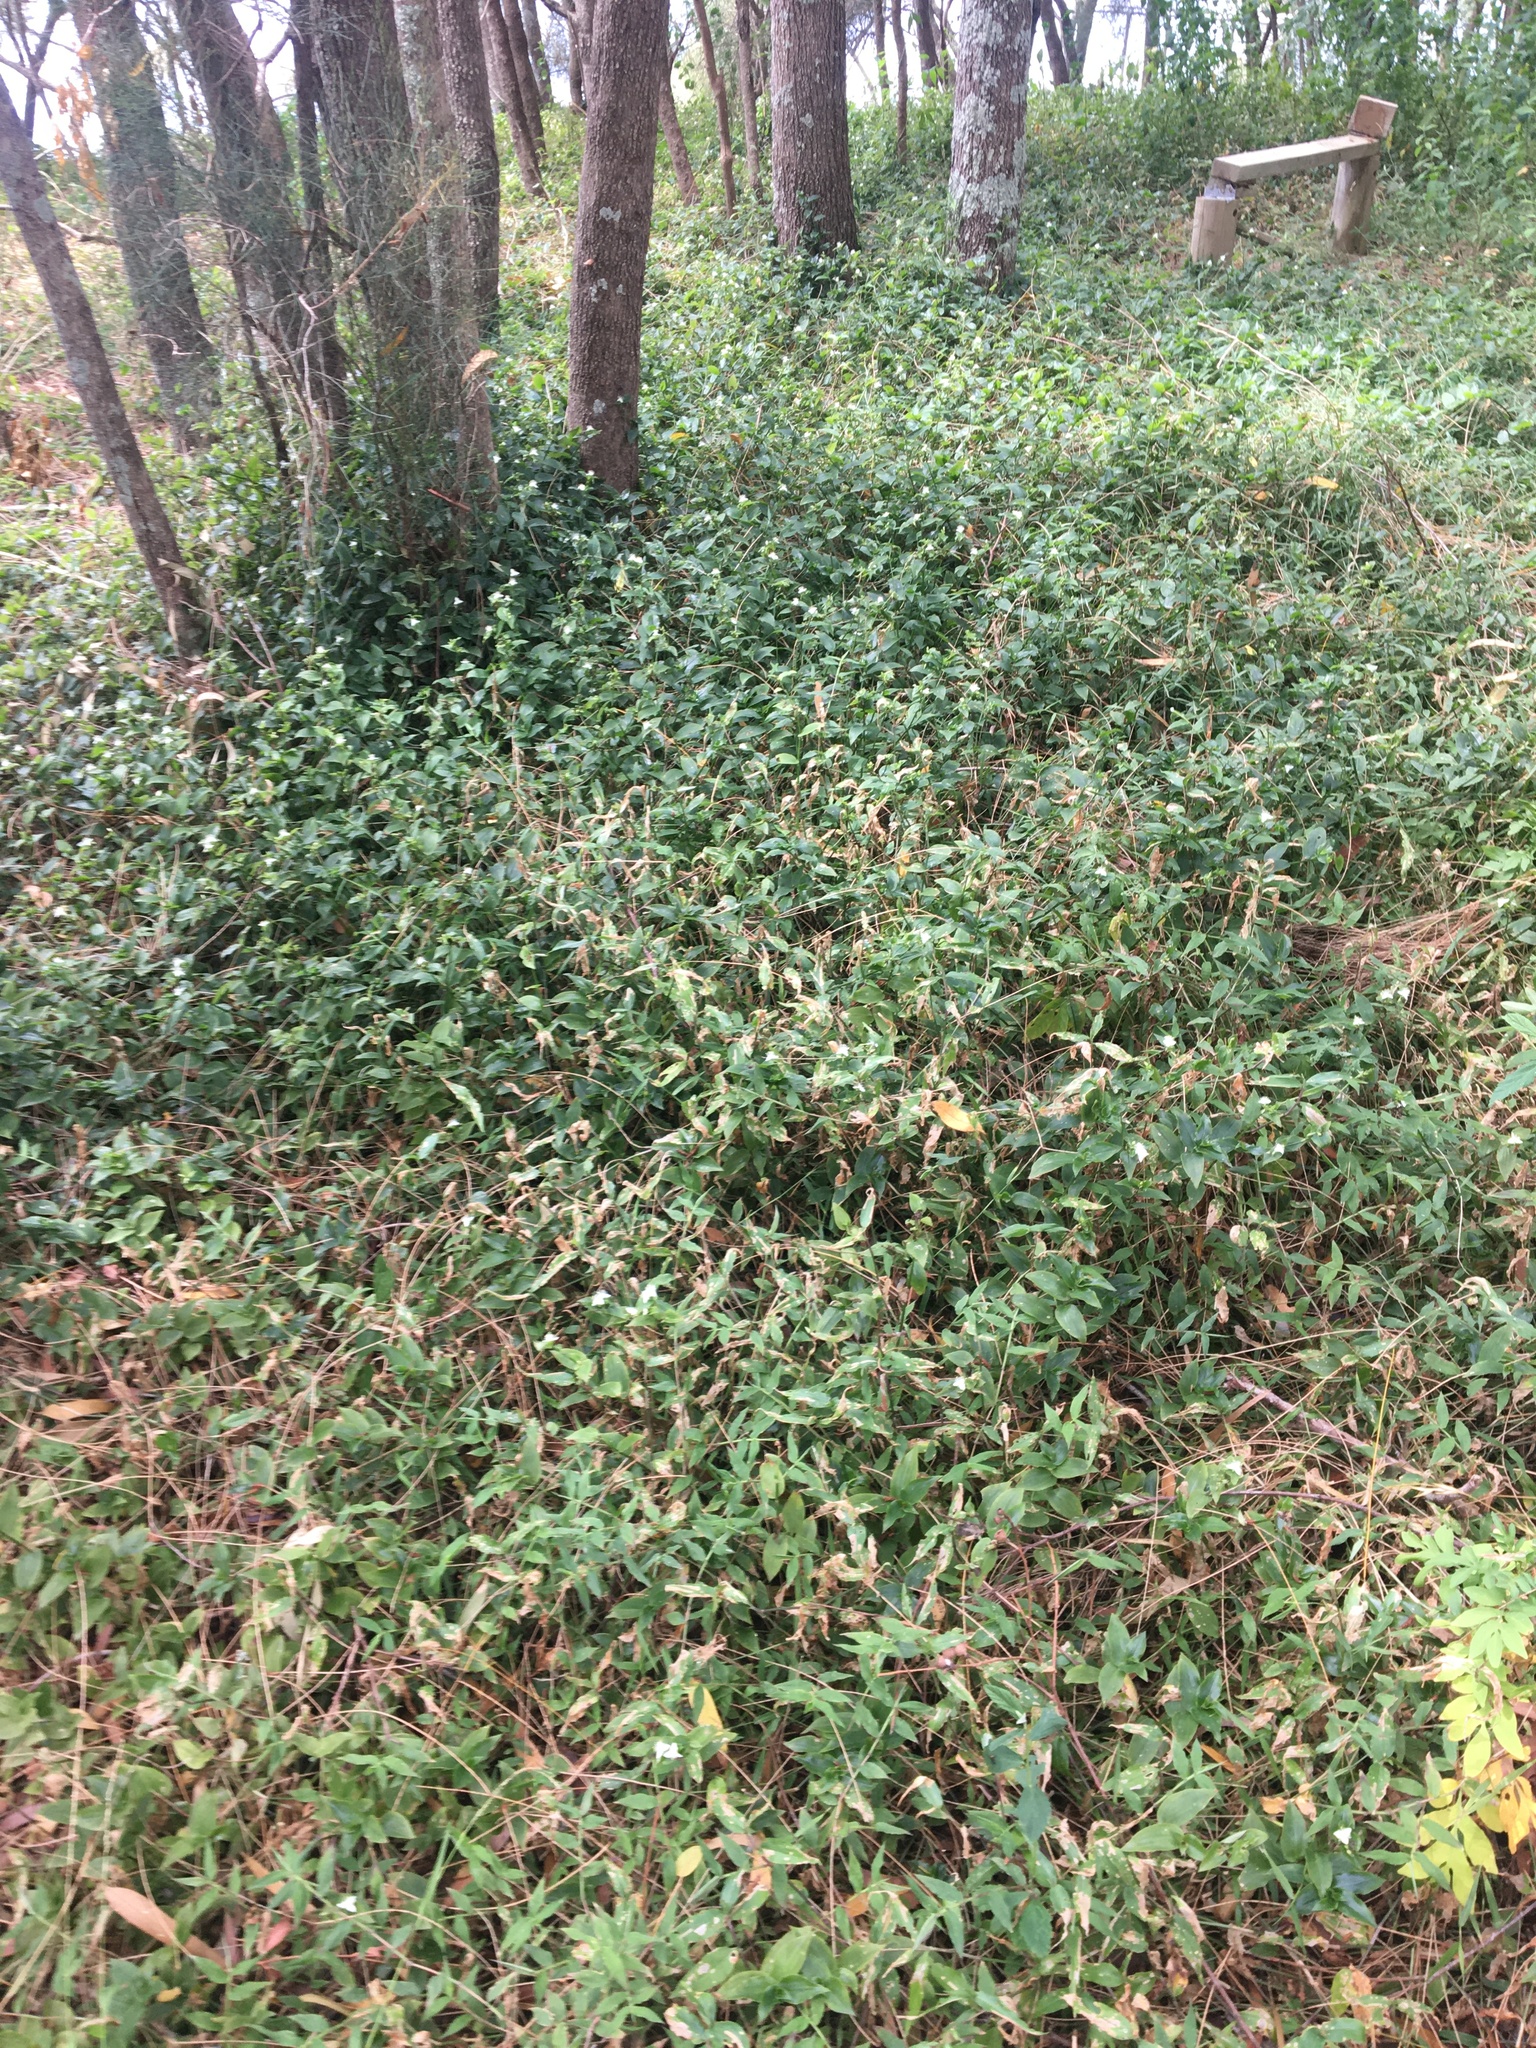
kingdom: Plantae
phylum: Tracheophyta
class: Liliopsida
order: Commelinales
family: Commelinaceae
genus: Tradescantia
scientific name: Tradescantia fluminensis
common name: Wandering-jew
